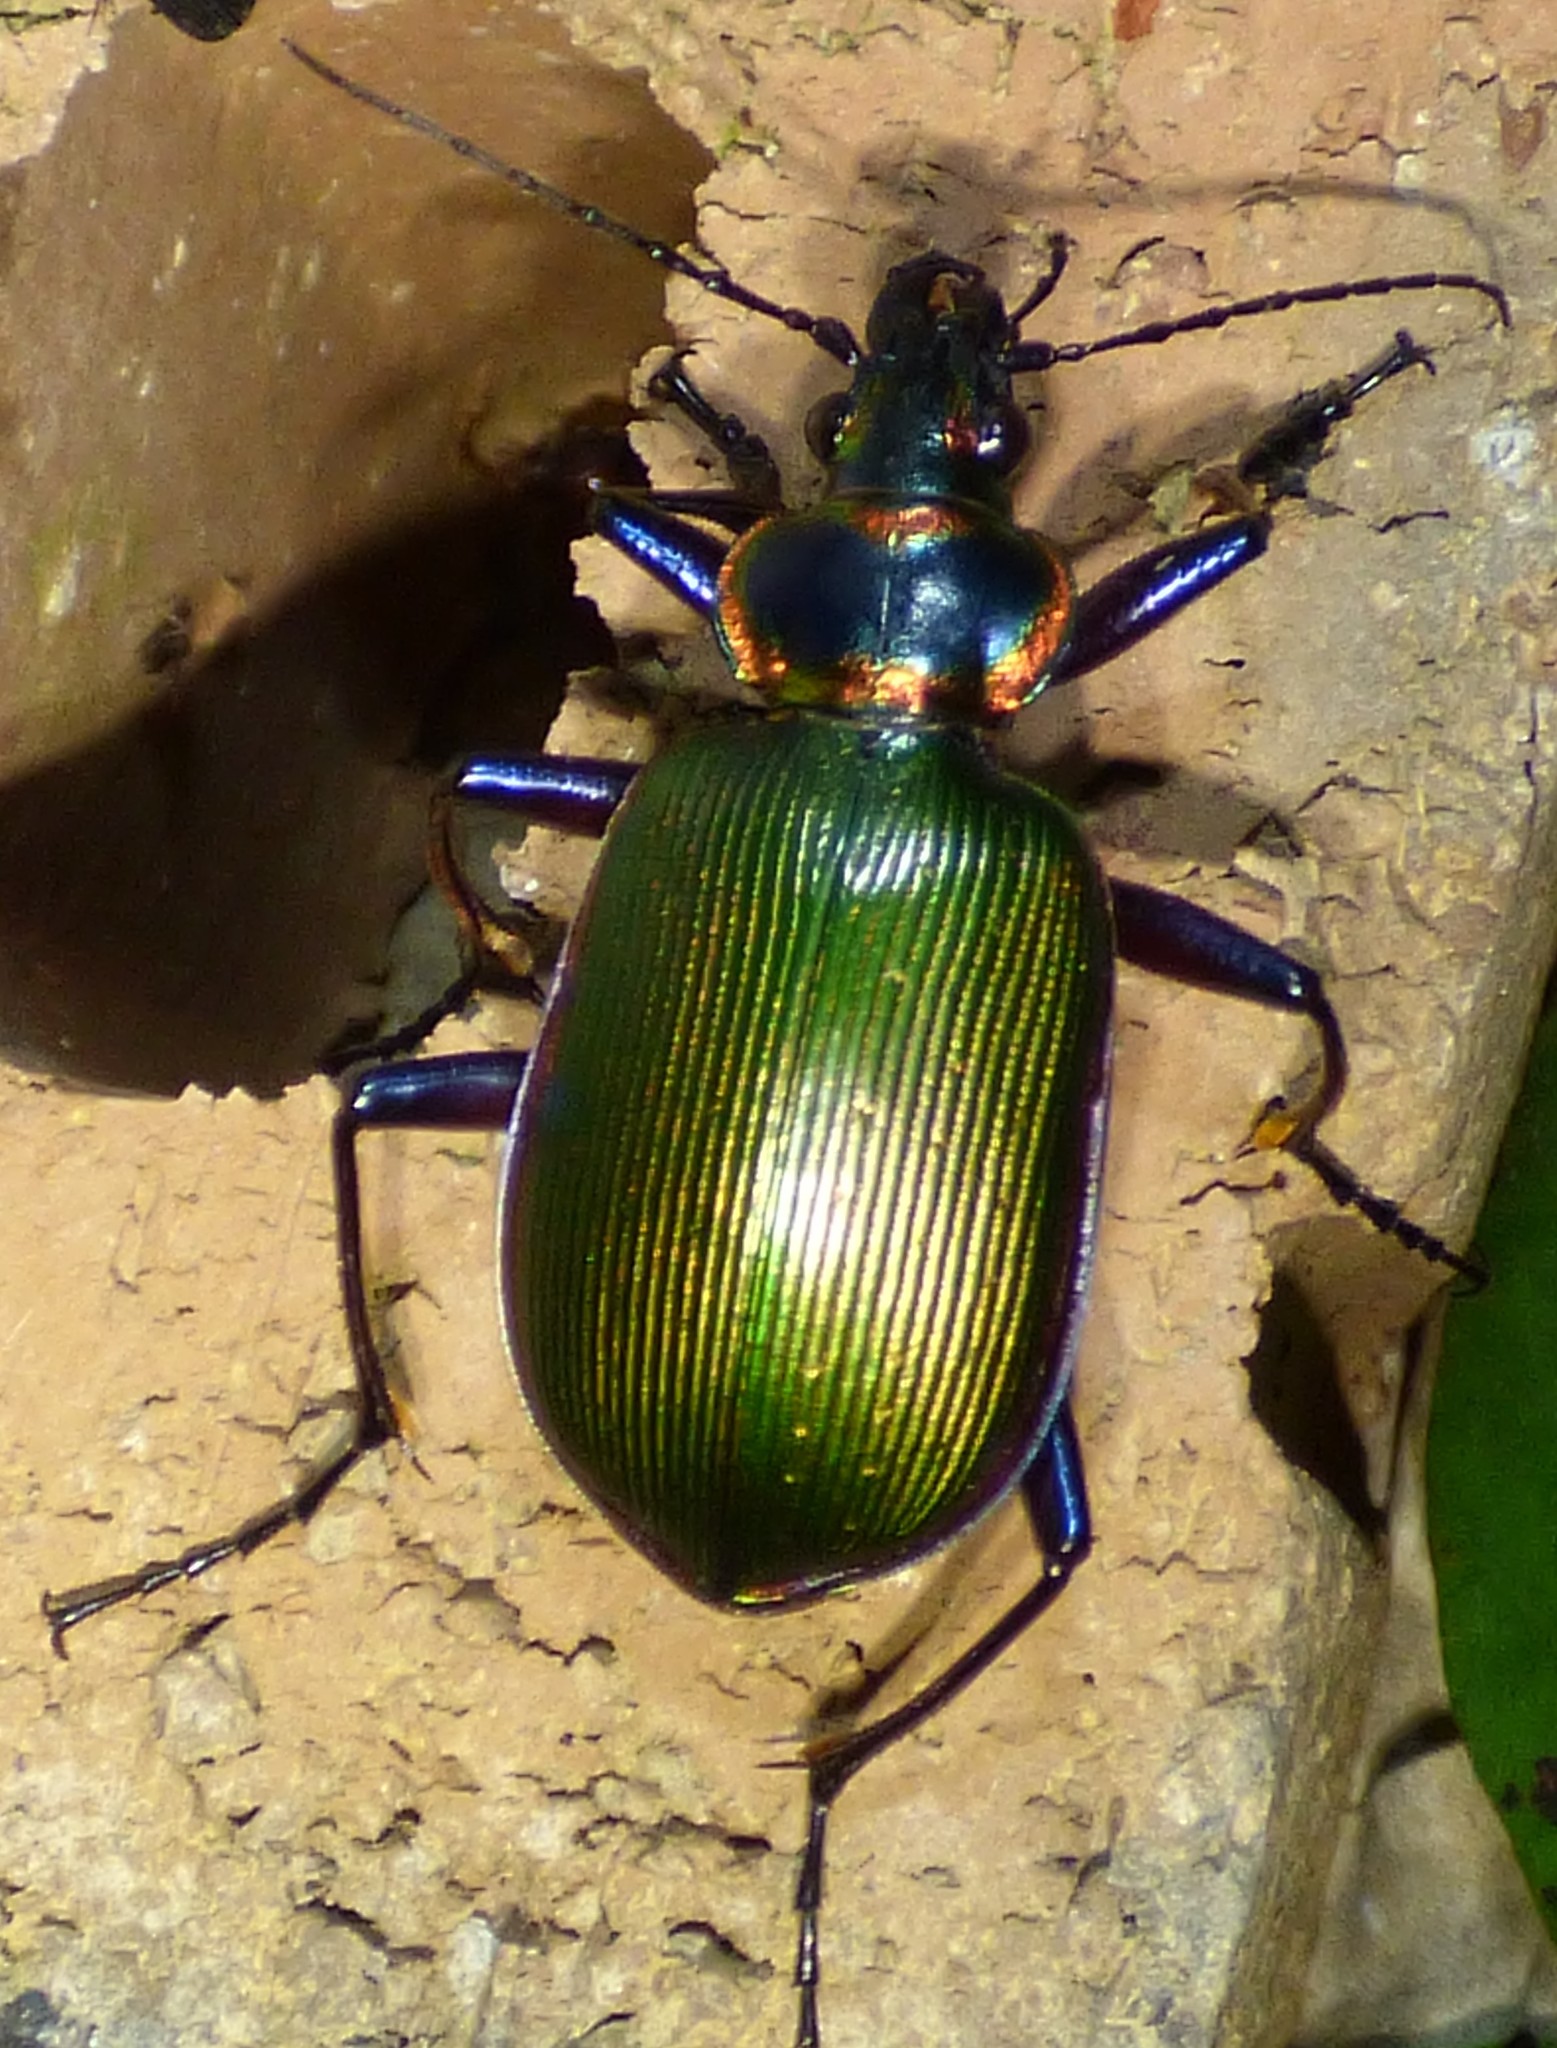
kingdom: Animalia
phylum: Arthropoda
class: Insecta
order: Coleoptera
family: Carabidae
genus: Calosoma
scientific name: Calosoma scrutator
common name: Fiery searcher beetle
